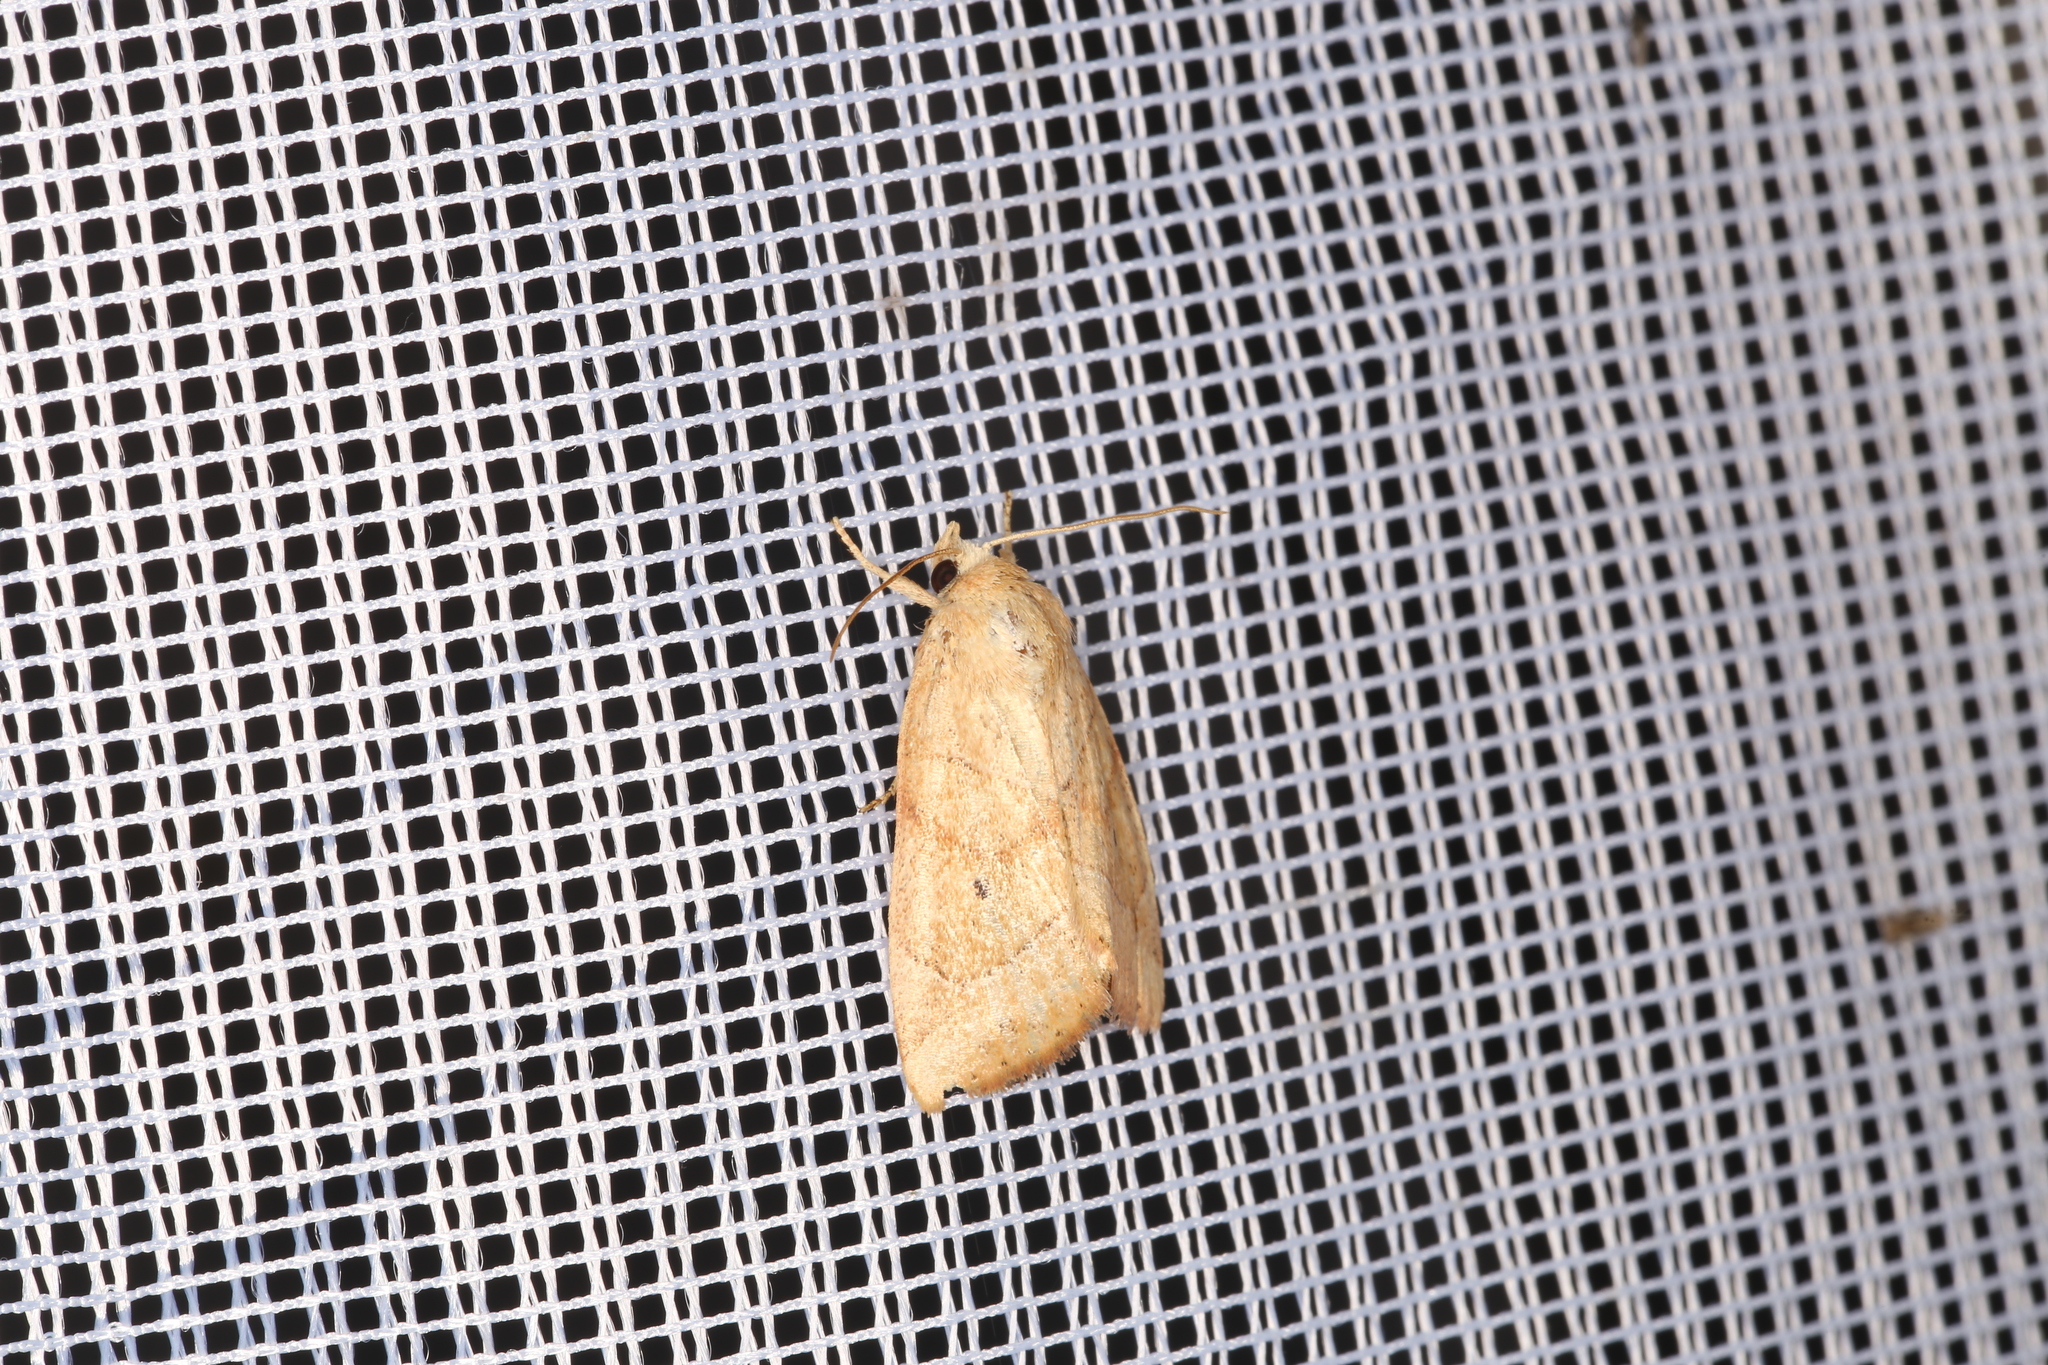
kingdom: Animalia
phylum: Arthropoda
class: Insecta
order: Lepidoptera
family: Noctuidae
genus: Cosmia
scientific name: Cosmia trapezina
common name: Dun-bar
